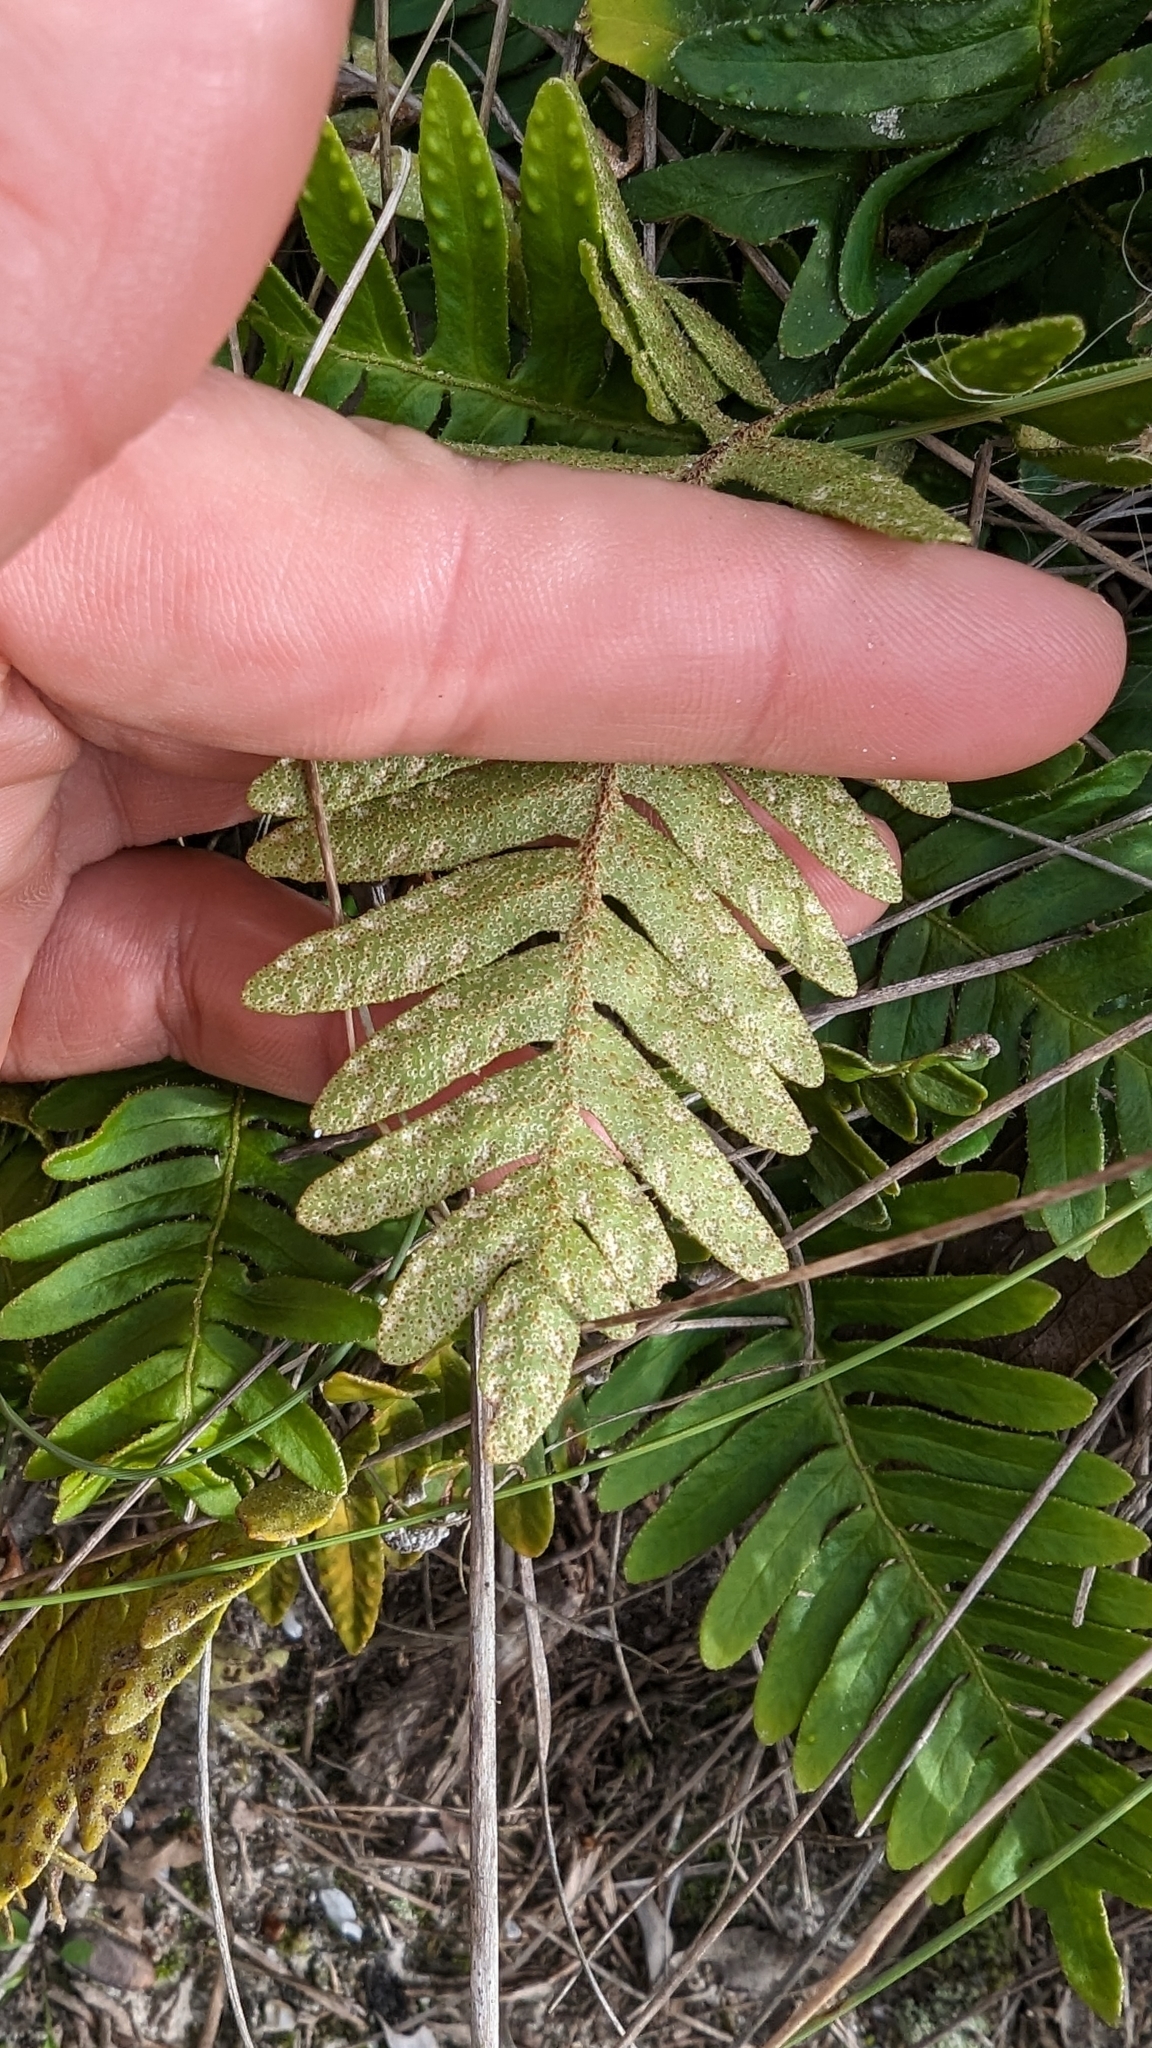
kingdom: Plantae
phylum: Tracheophyta
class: Polypodiopsida
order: Polypodiales
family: Polypodiaceae
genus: Pleopeltis
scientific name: Pleopeltis michauxiana
